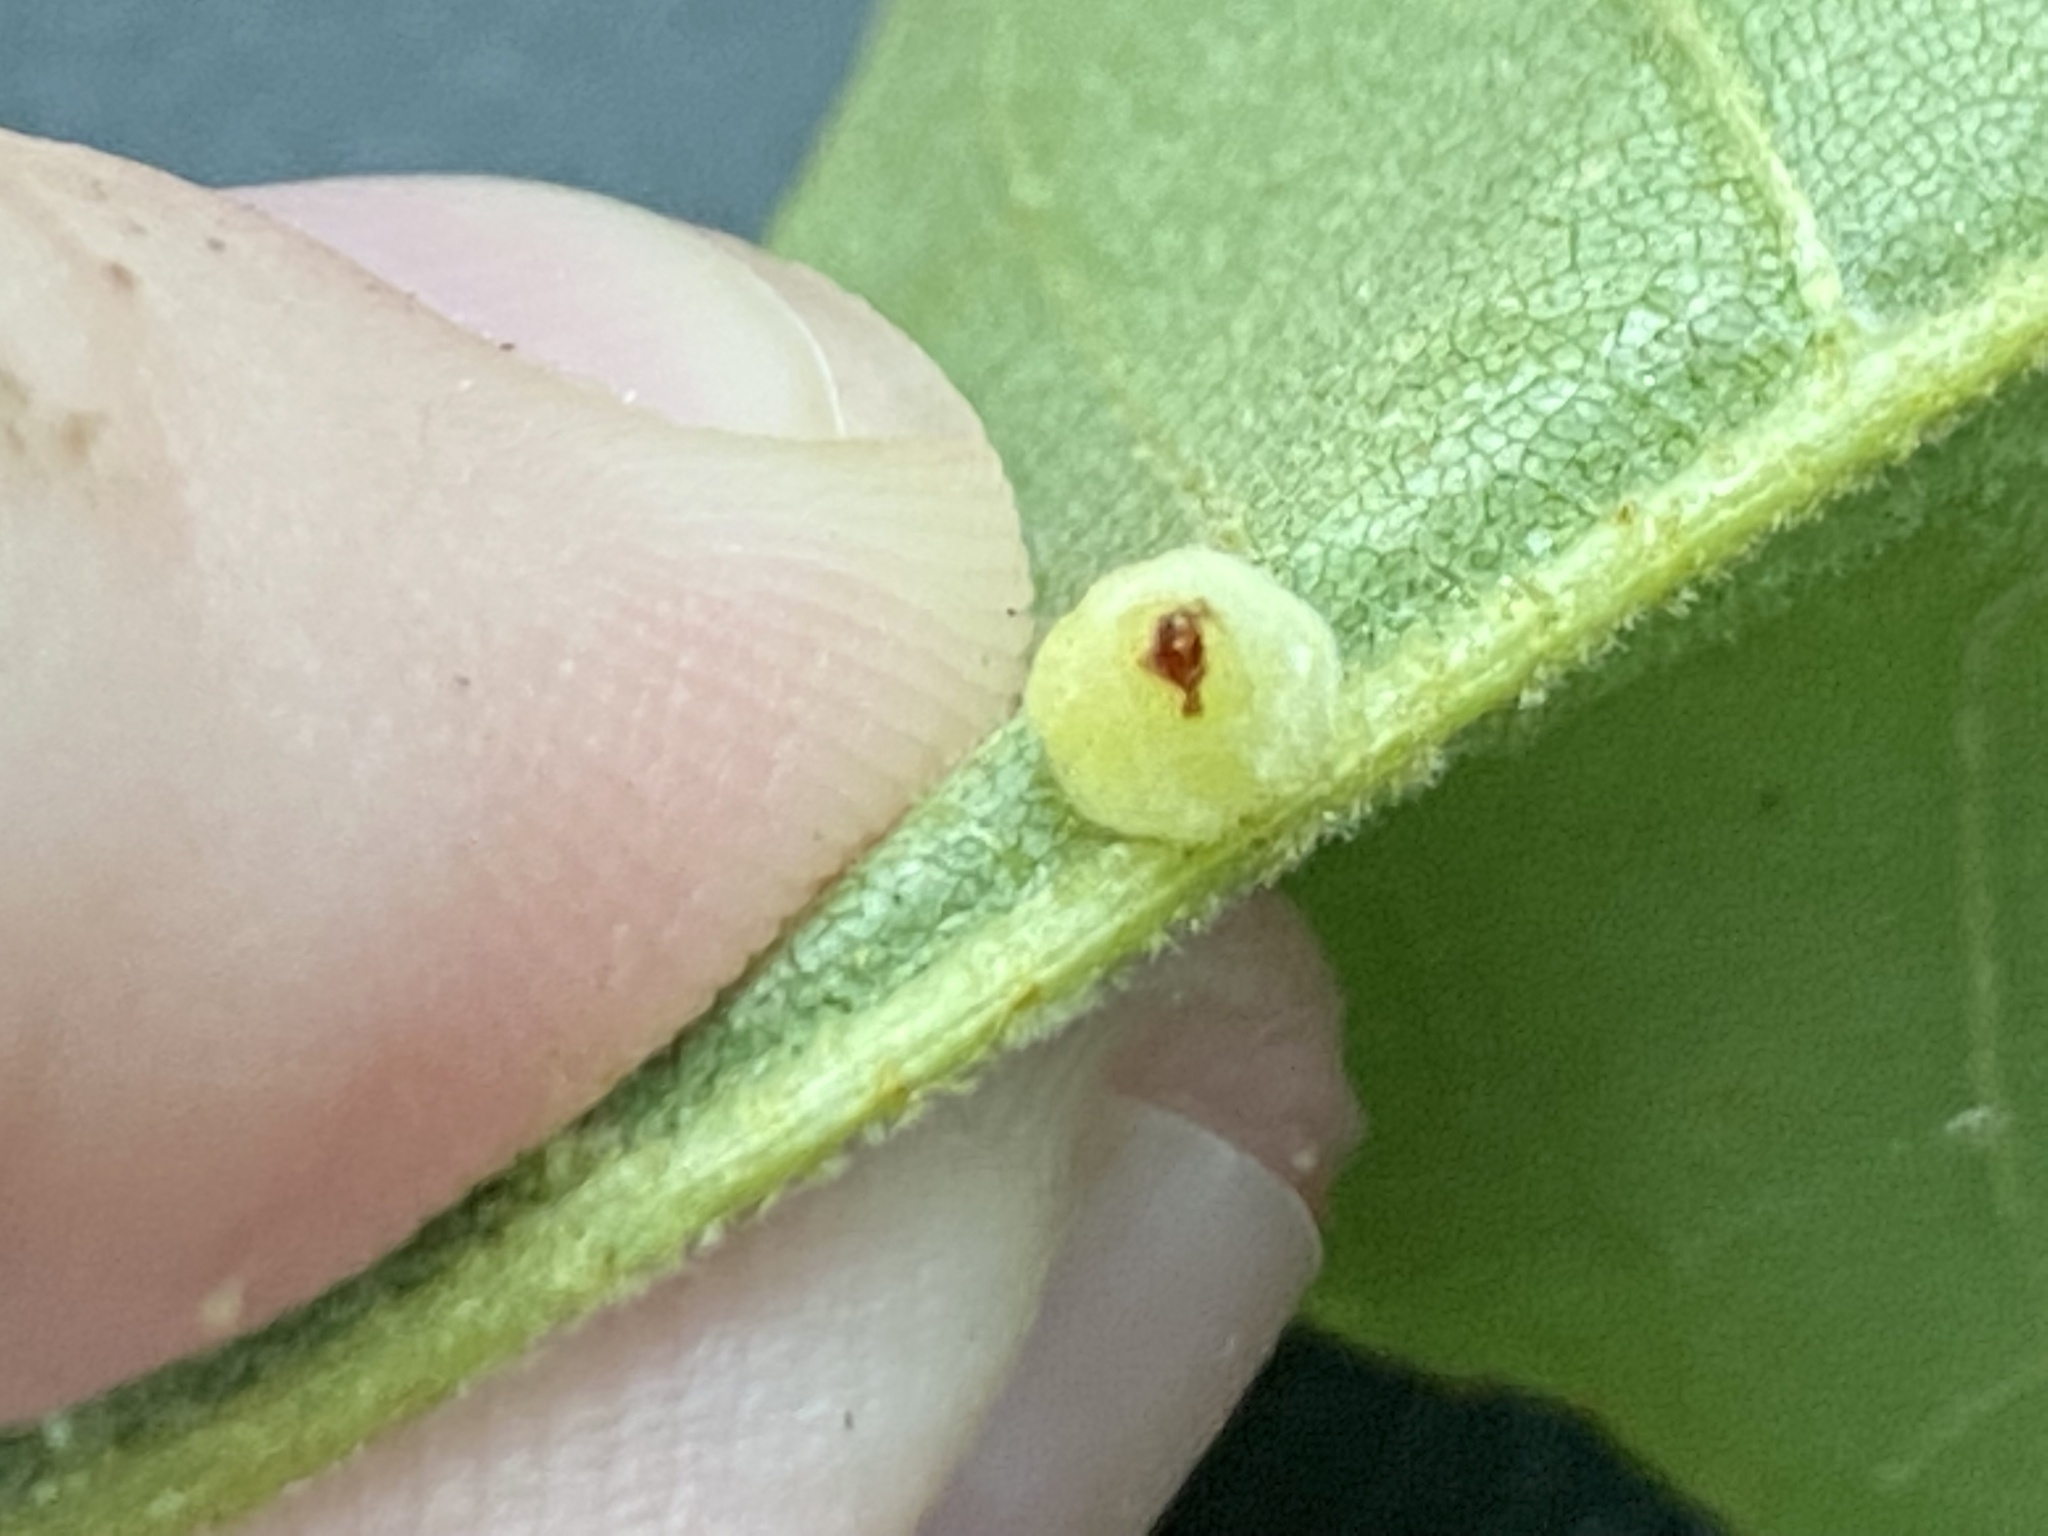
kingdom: Animalia
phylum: Arthropoda
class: Insecta
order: Diptera
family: Cecidomyiidae
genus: Caryomyia
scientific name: Caryomyia persicoides
